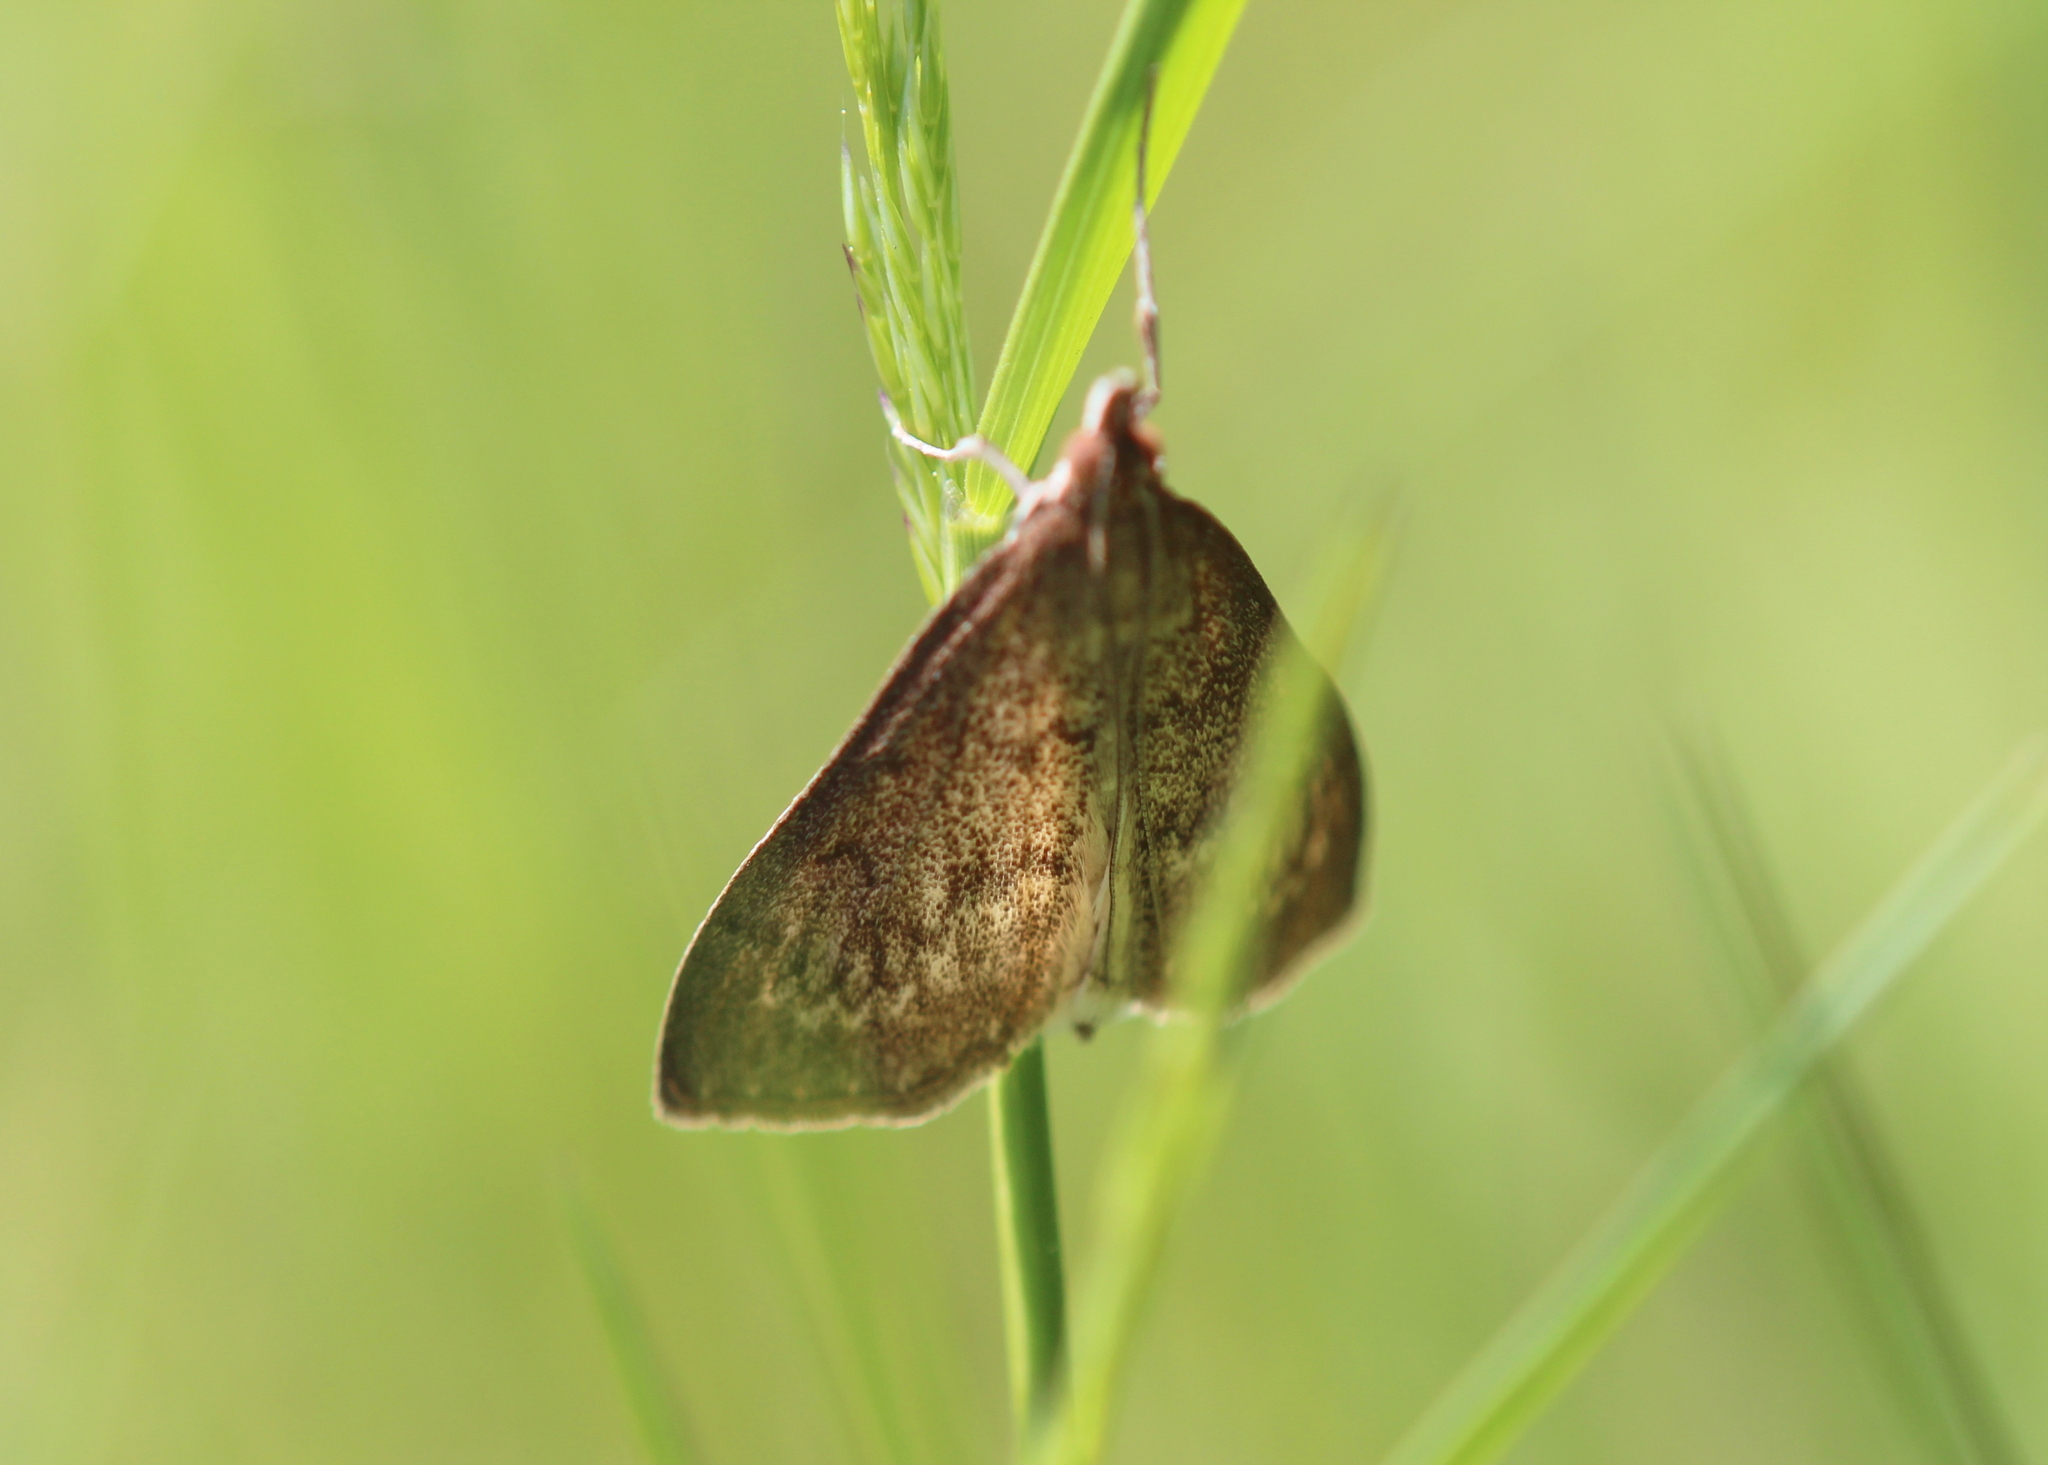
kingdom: Animalia
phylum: Arthropoda
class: Insecta
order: Lepidoptera
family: Crambidae
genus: Saucrobotys
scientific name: Saucrobotys futilalis
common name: Dogbane saucrobotys moth
